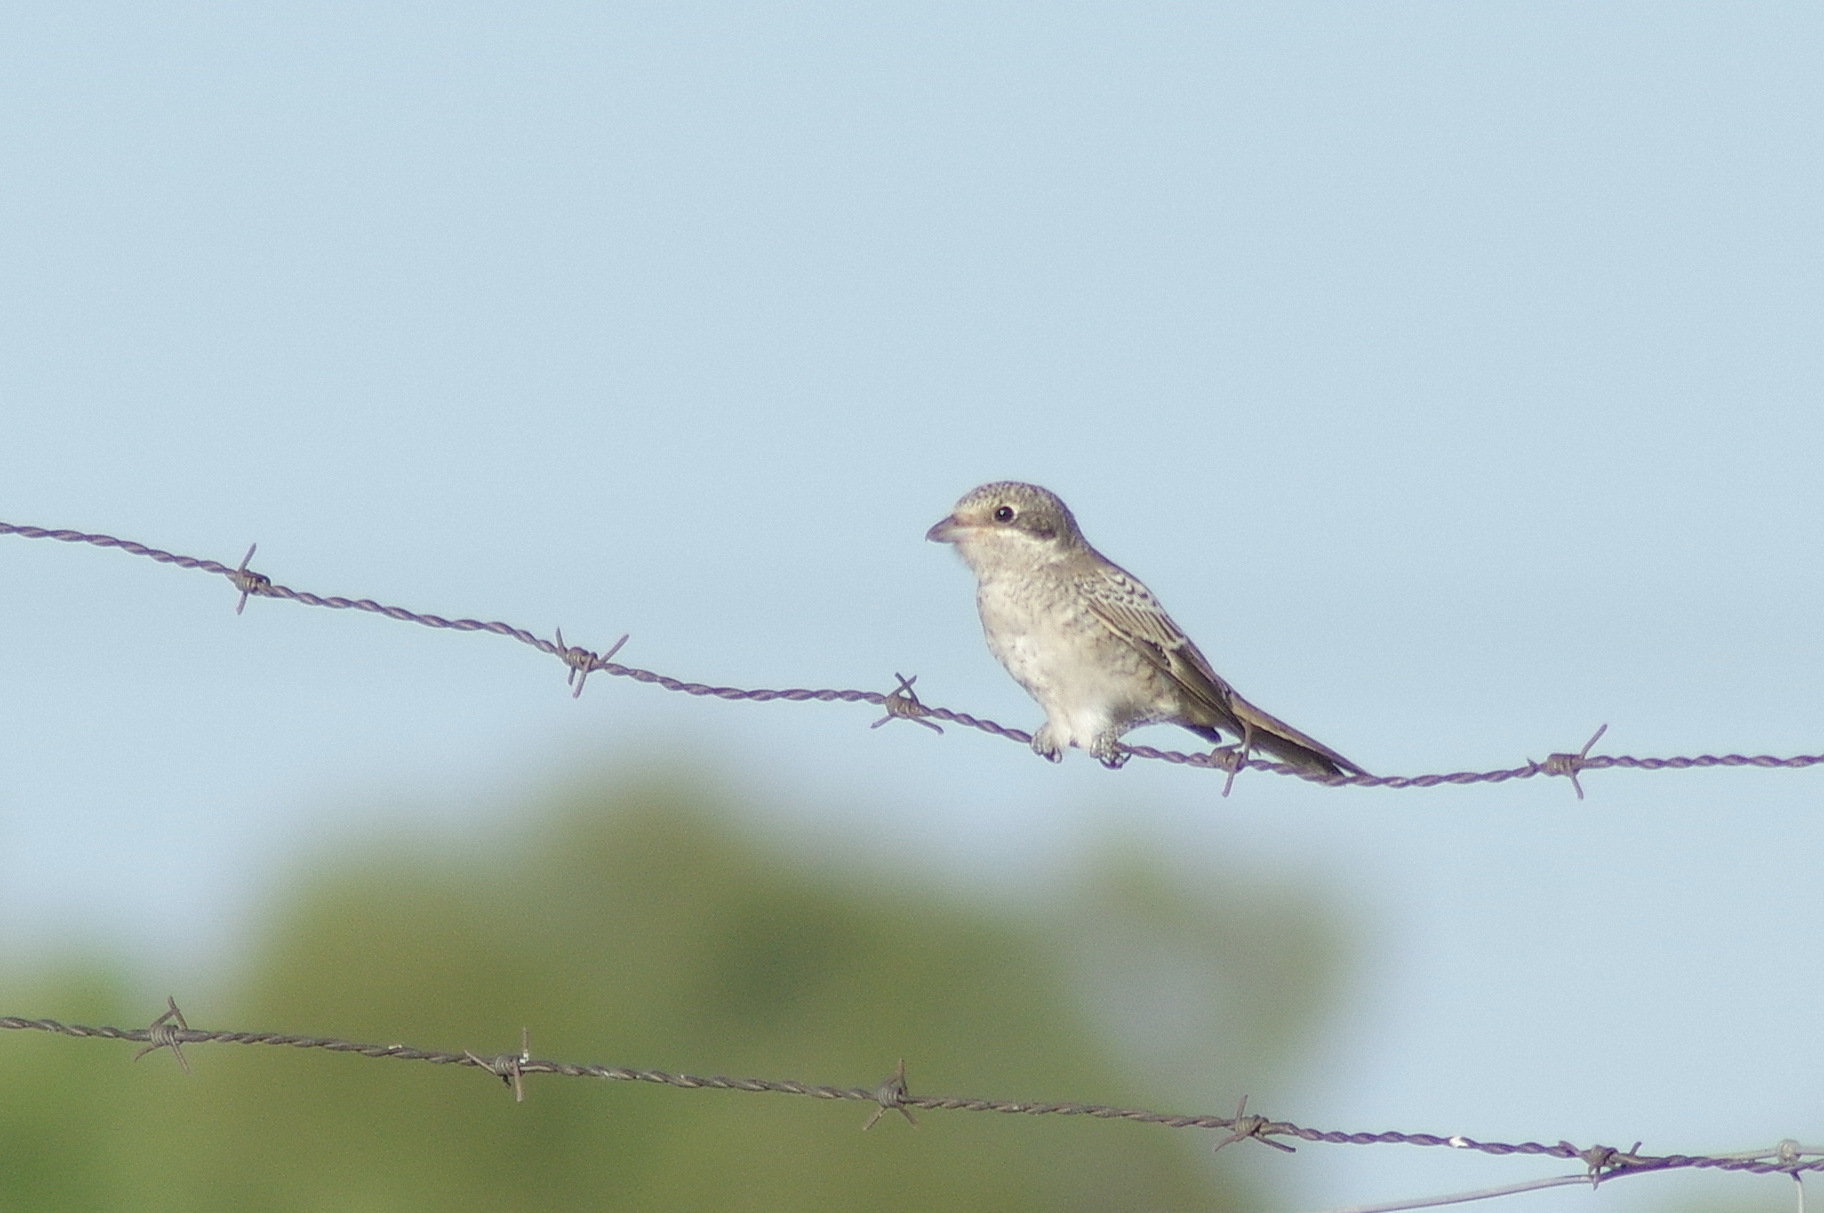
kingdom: Animalia
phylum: Chordata
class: Aves
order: Passeriformes
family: Laniidae
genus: Lanius
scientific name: Lanius senator
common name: Woodchat shrike
